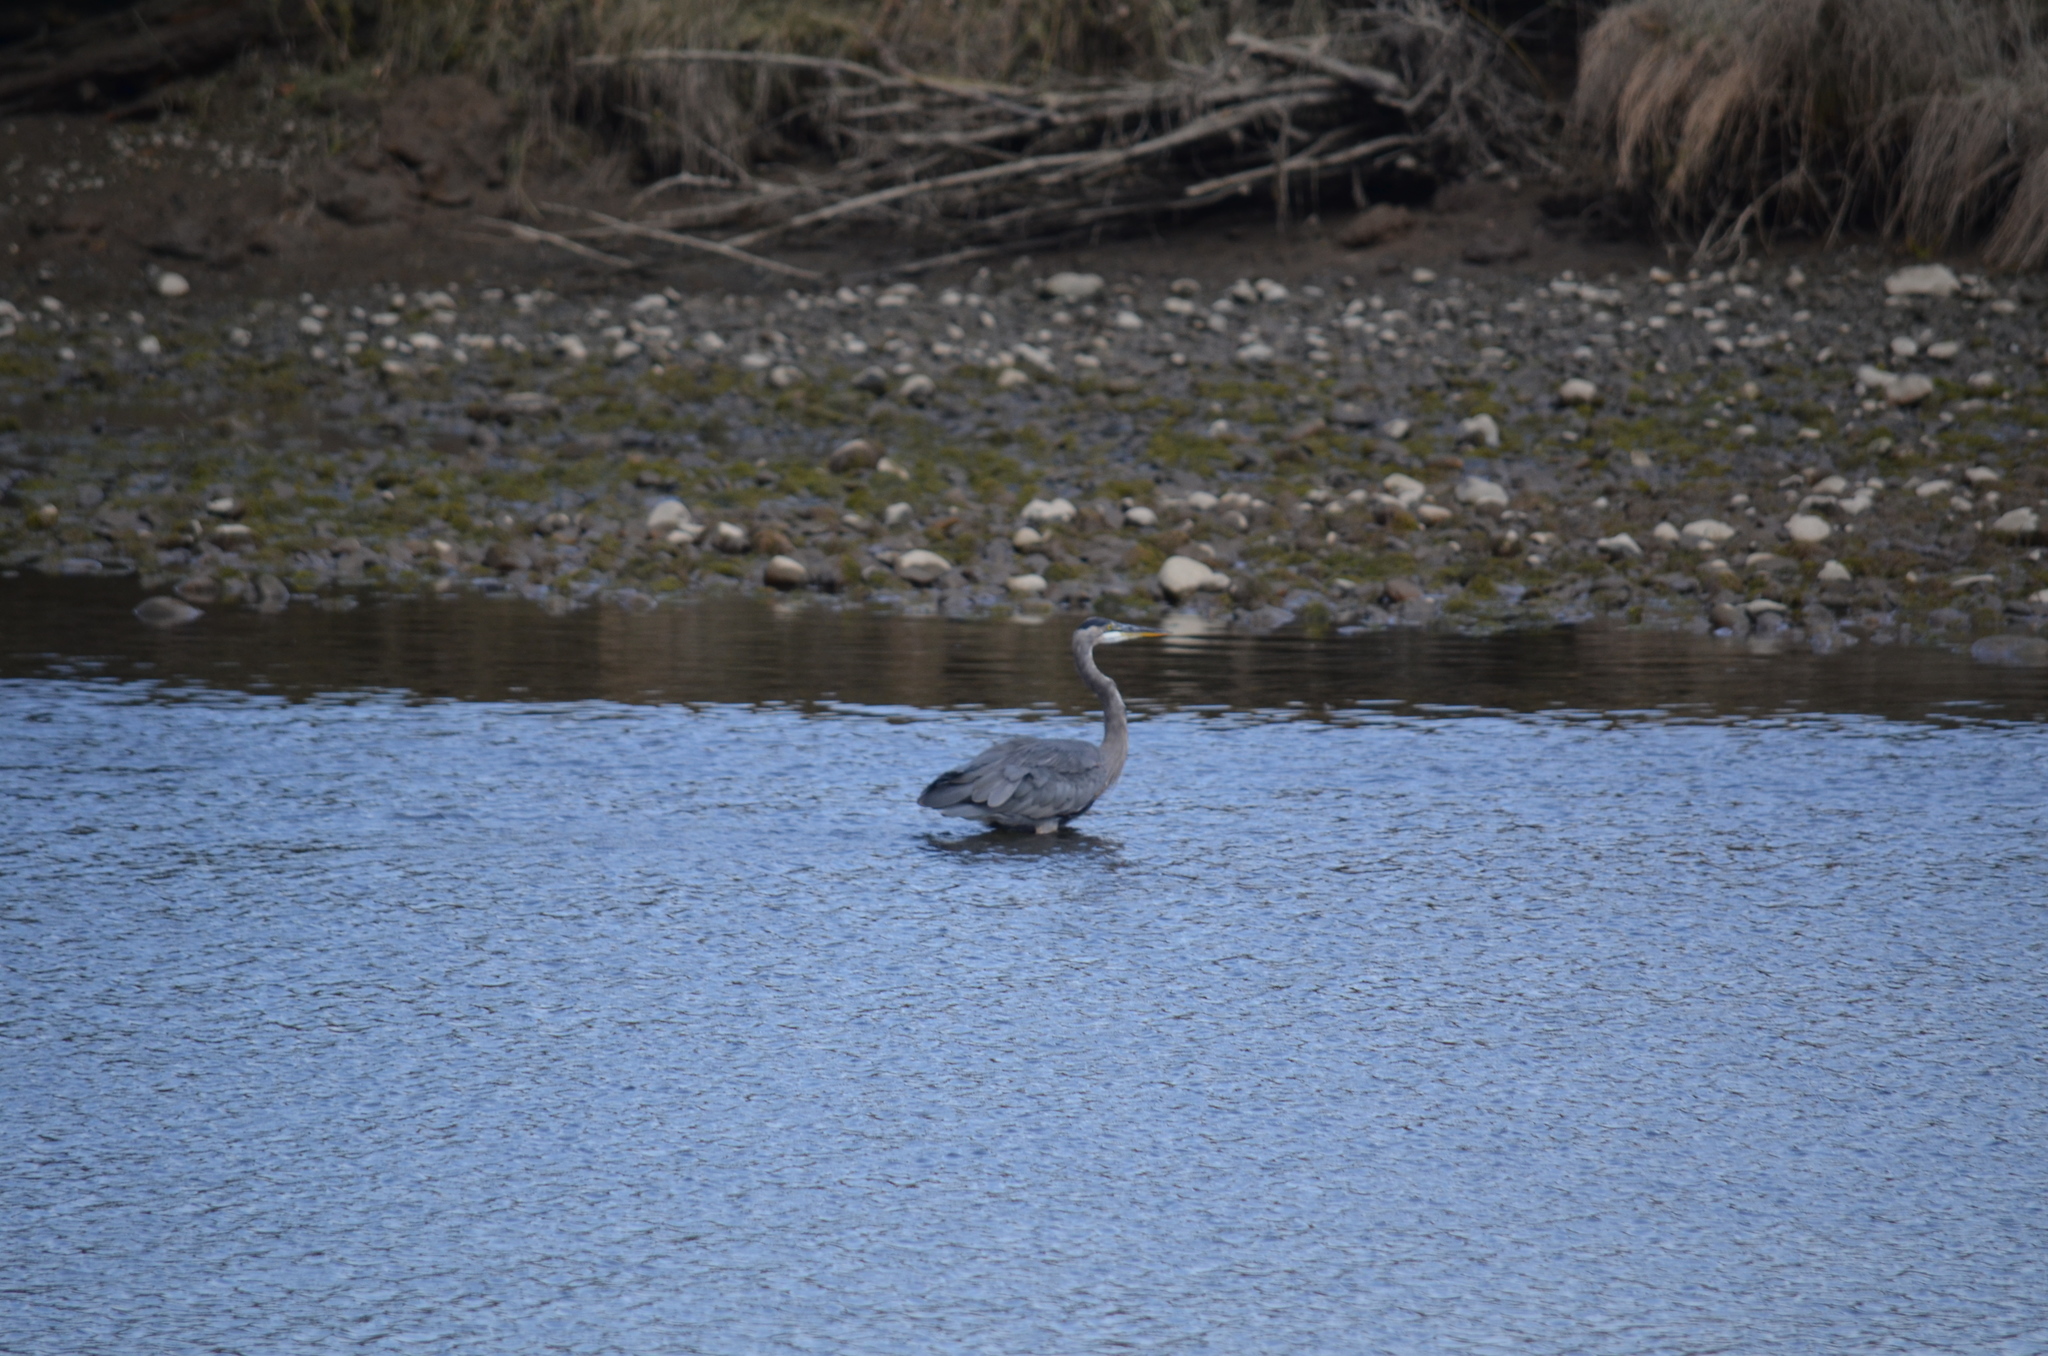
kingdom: Animalia
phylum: Chordata
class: Aves
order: Pelecaniformes
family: Ardeidae
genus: Ardea
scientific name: Ardea herodias
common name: Great blue heron
